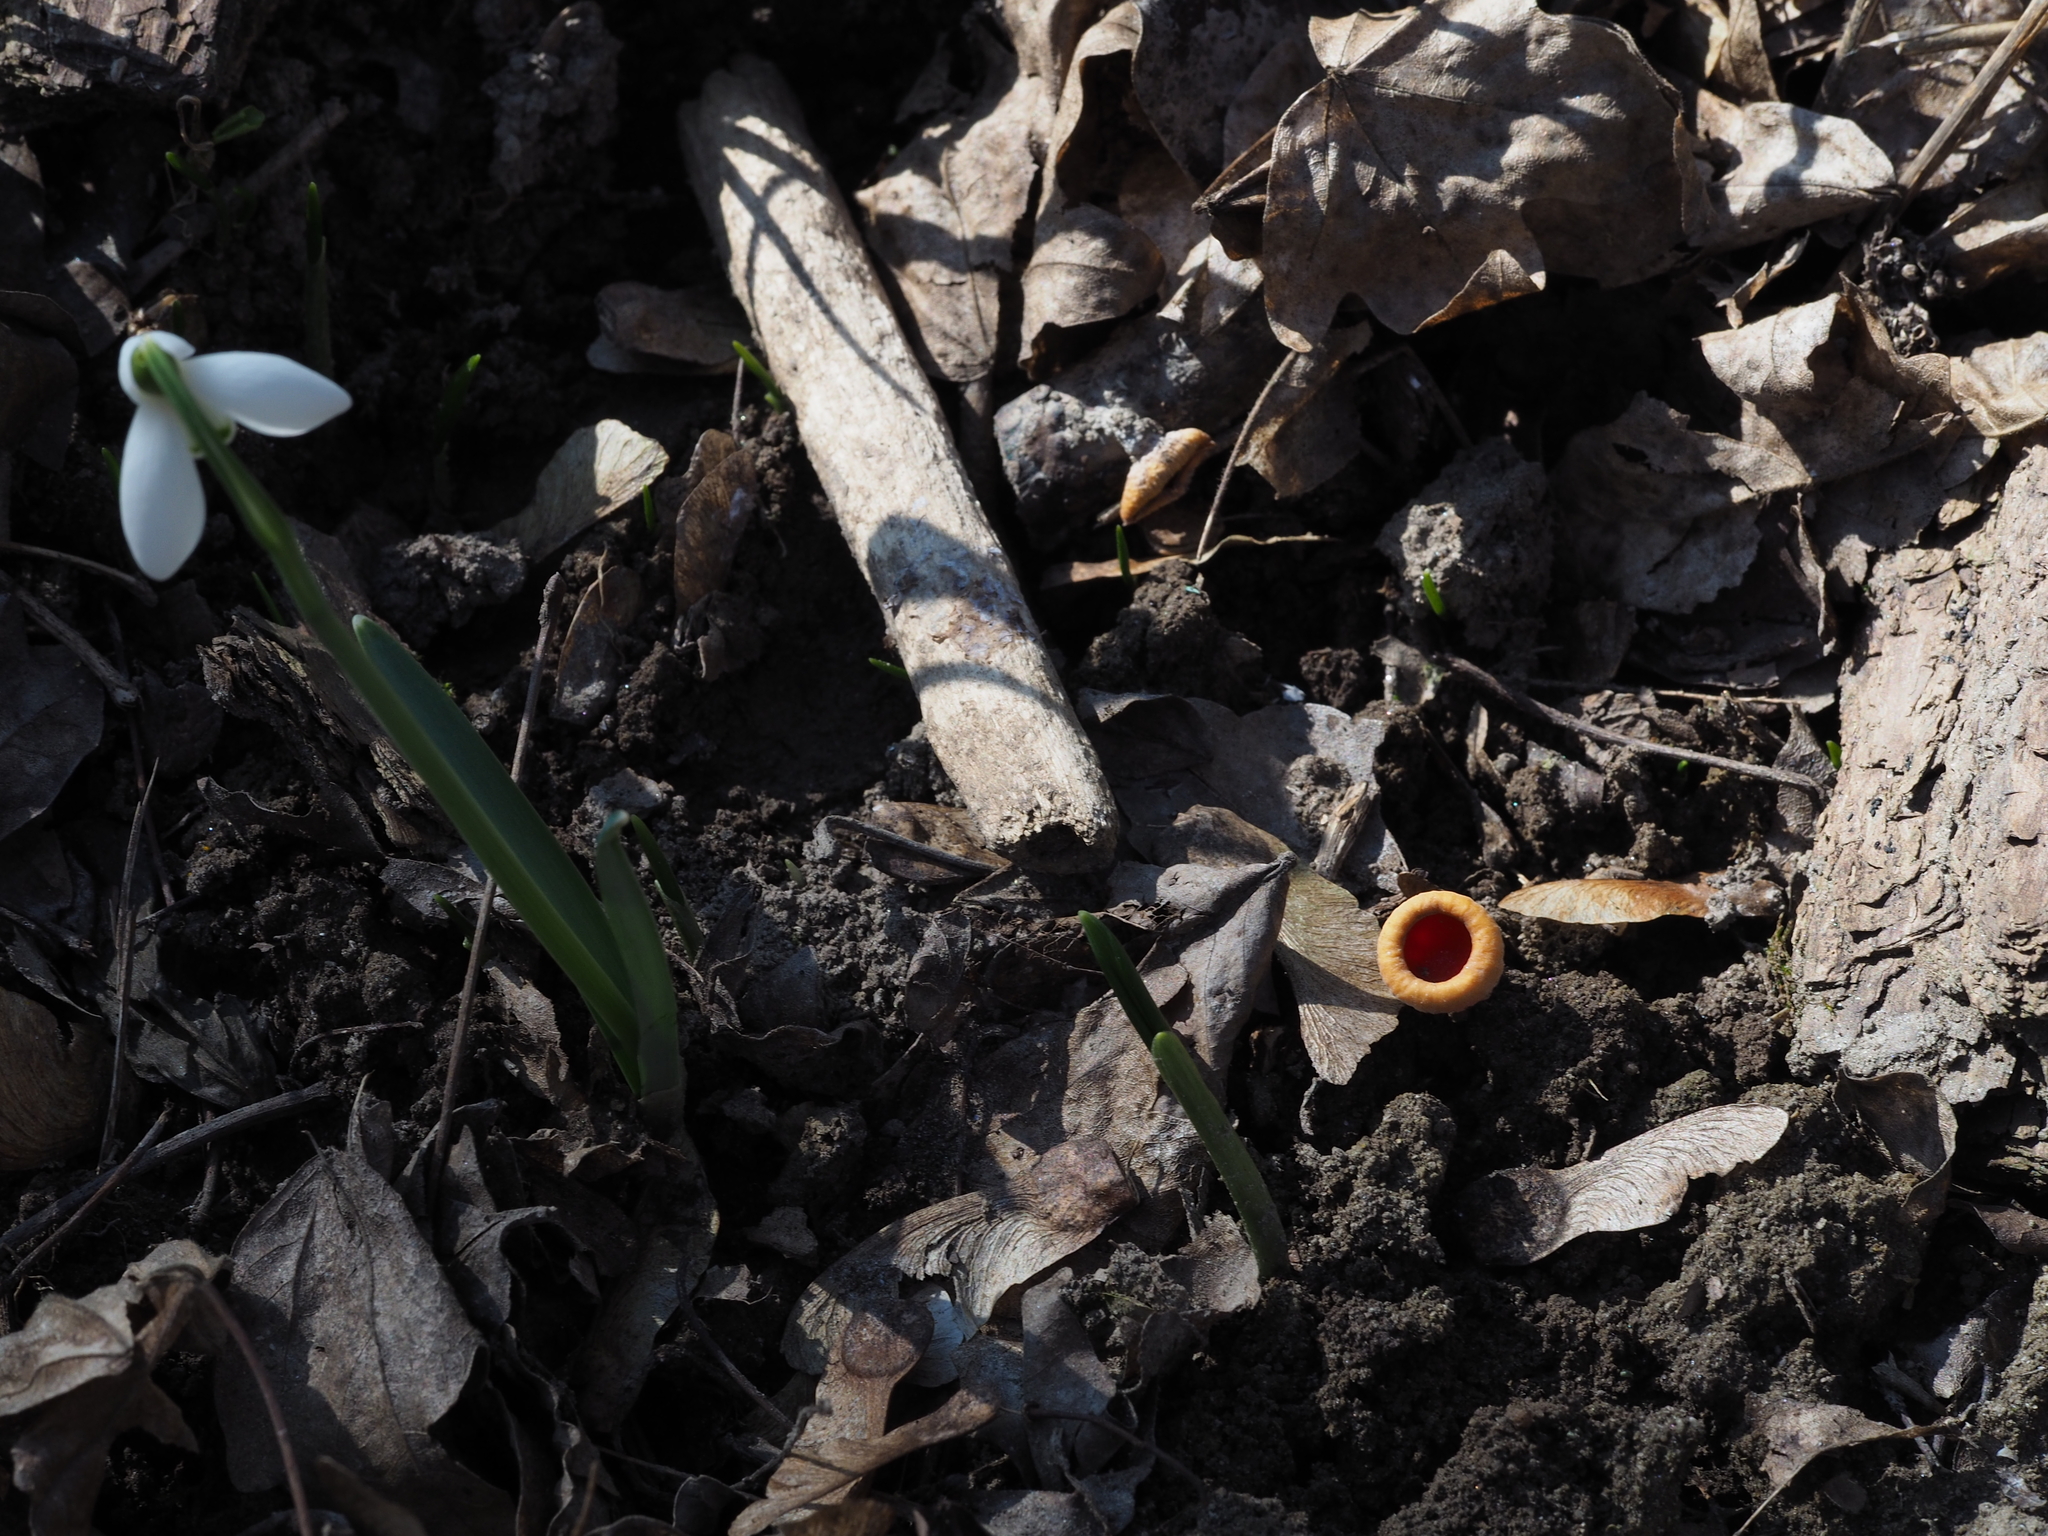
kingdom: Fungi
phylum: Ascomycota
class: Pezizomycetes
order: Pezizales
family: Sarcoscyphaceae
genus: Sarcoscypha
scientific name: Sarcoscypha austriaca
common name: Scarlet elfcup
